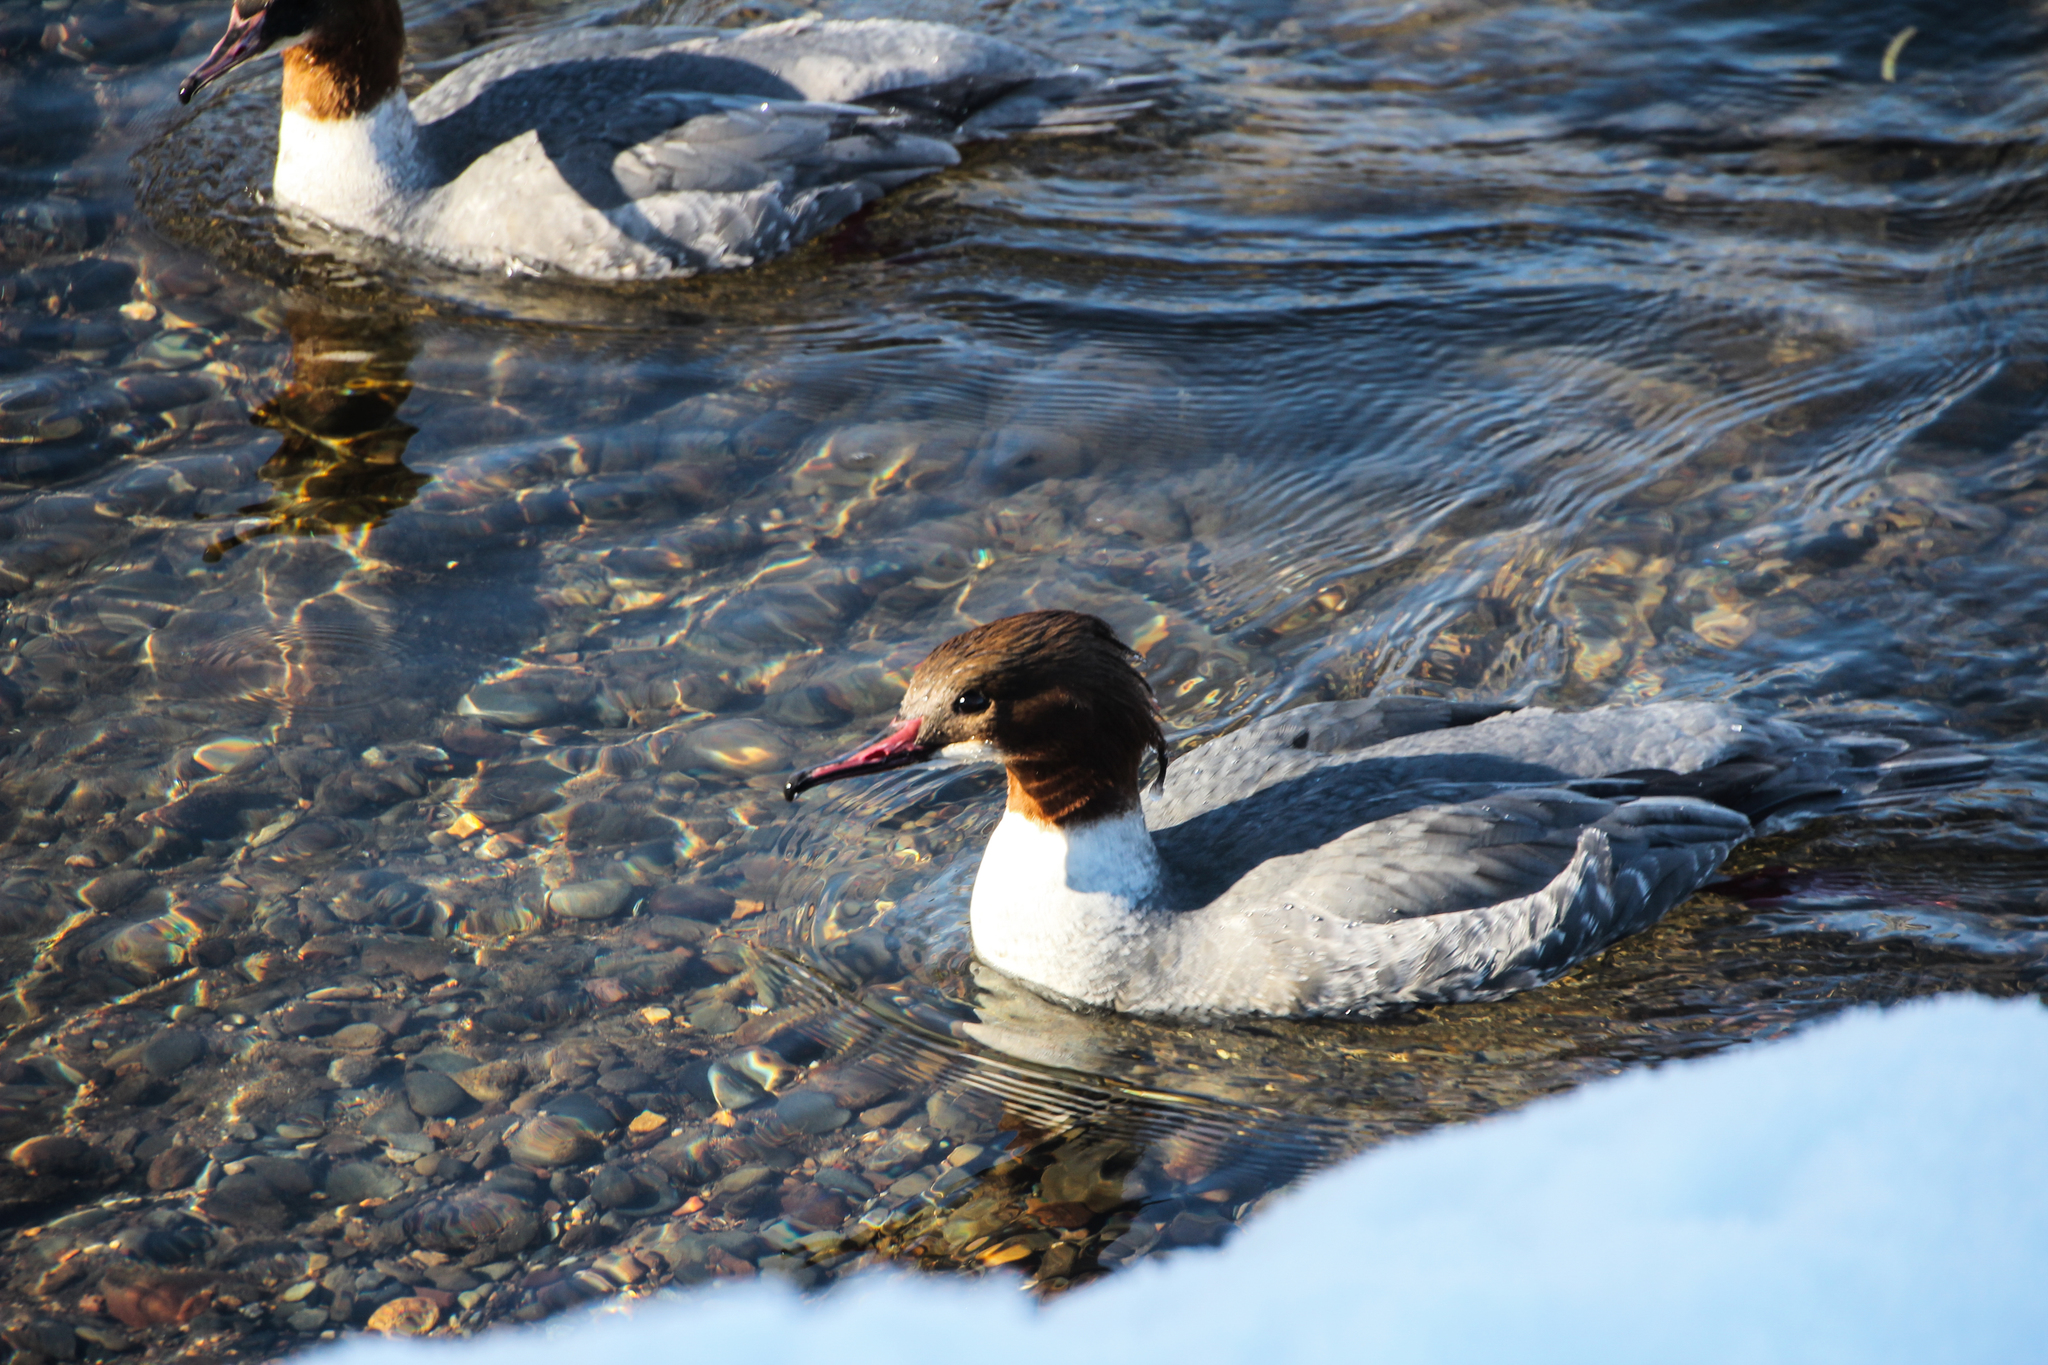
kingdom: Animalia
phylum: Chordata
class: Aves
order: Anseriformes
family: Anatidae
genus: Mergus
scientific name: Mergus merganser
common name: Common merganser
